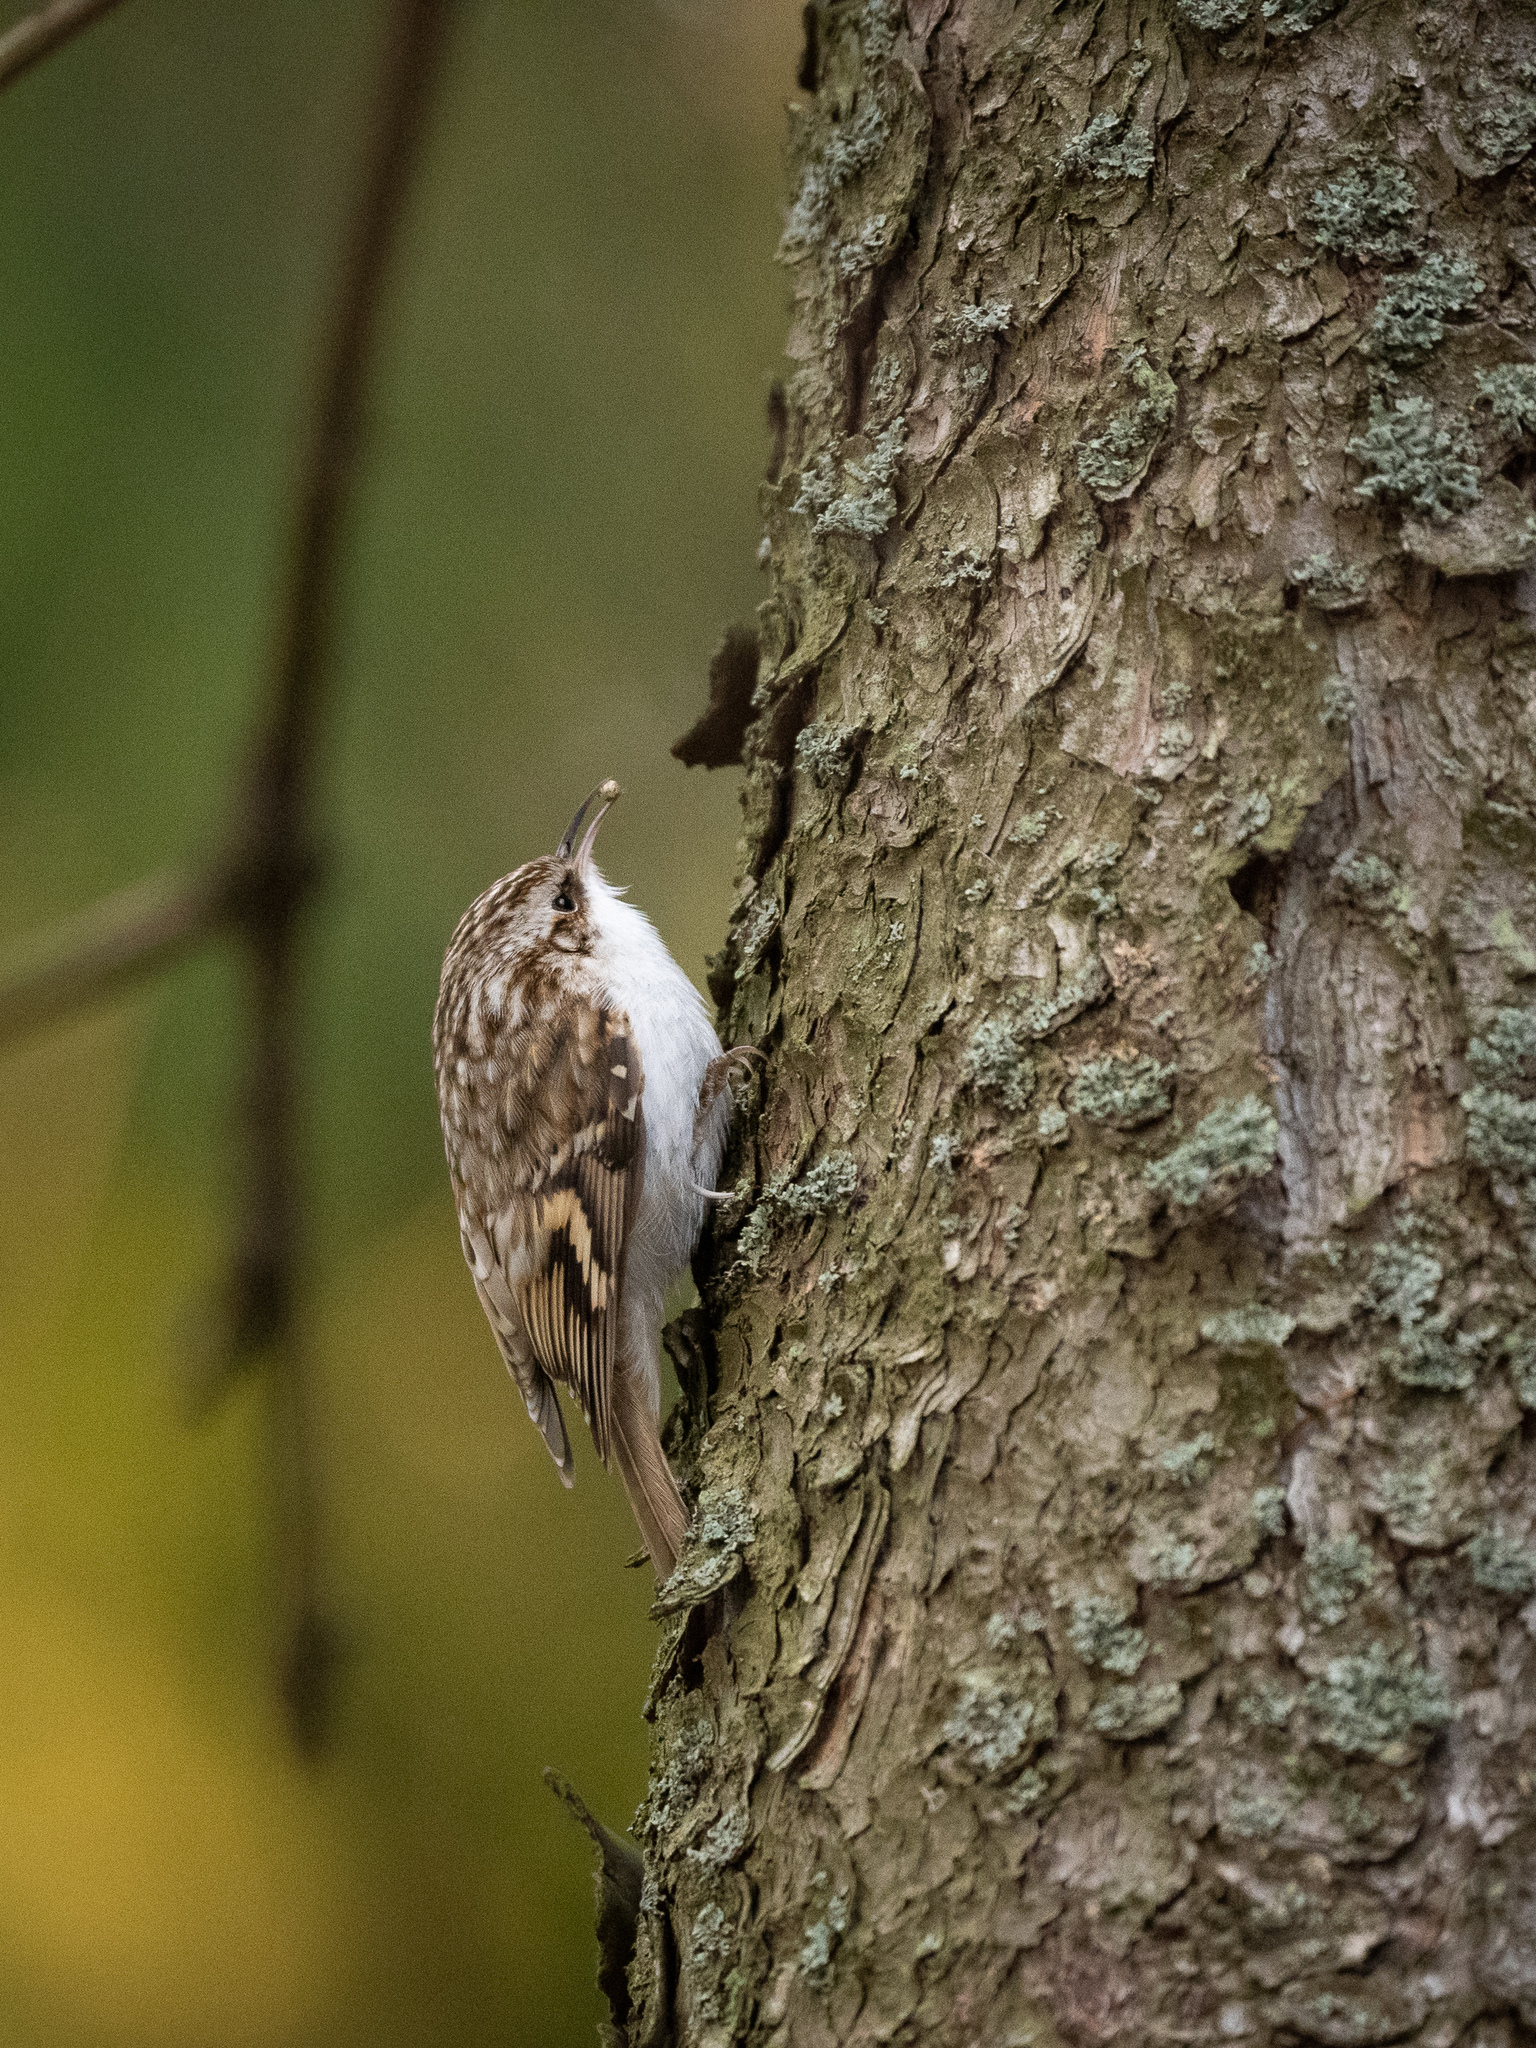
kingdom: Animalia
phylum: Chordata
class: Aves
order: Passeriformes
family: Certhiidae
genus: Certhia
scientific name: Certhia familiaris
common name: Eurasian treecreeper
